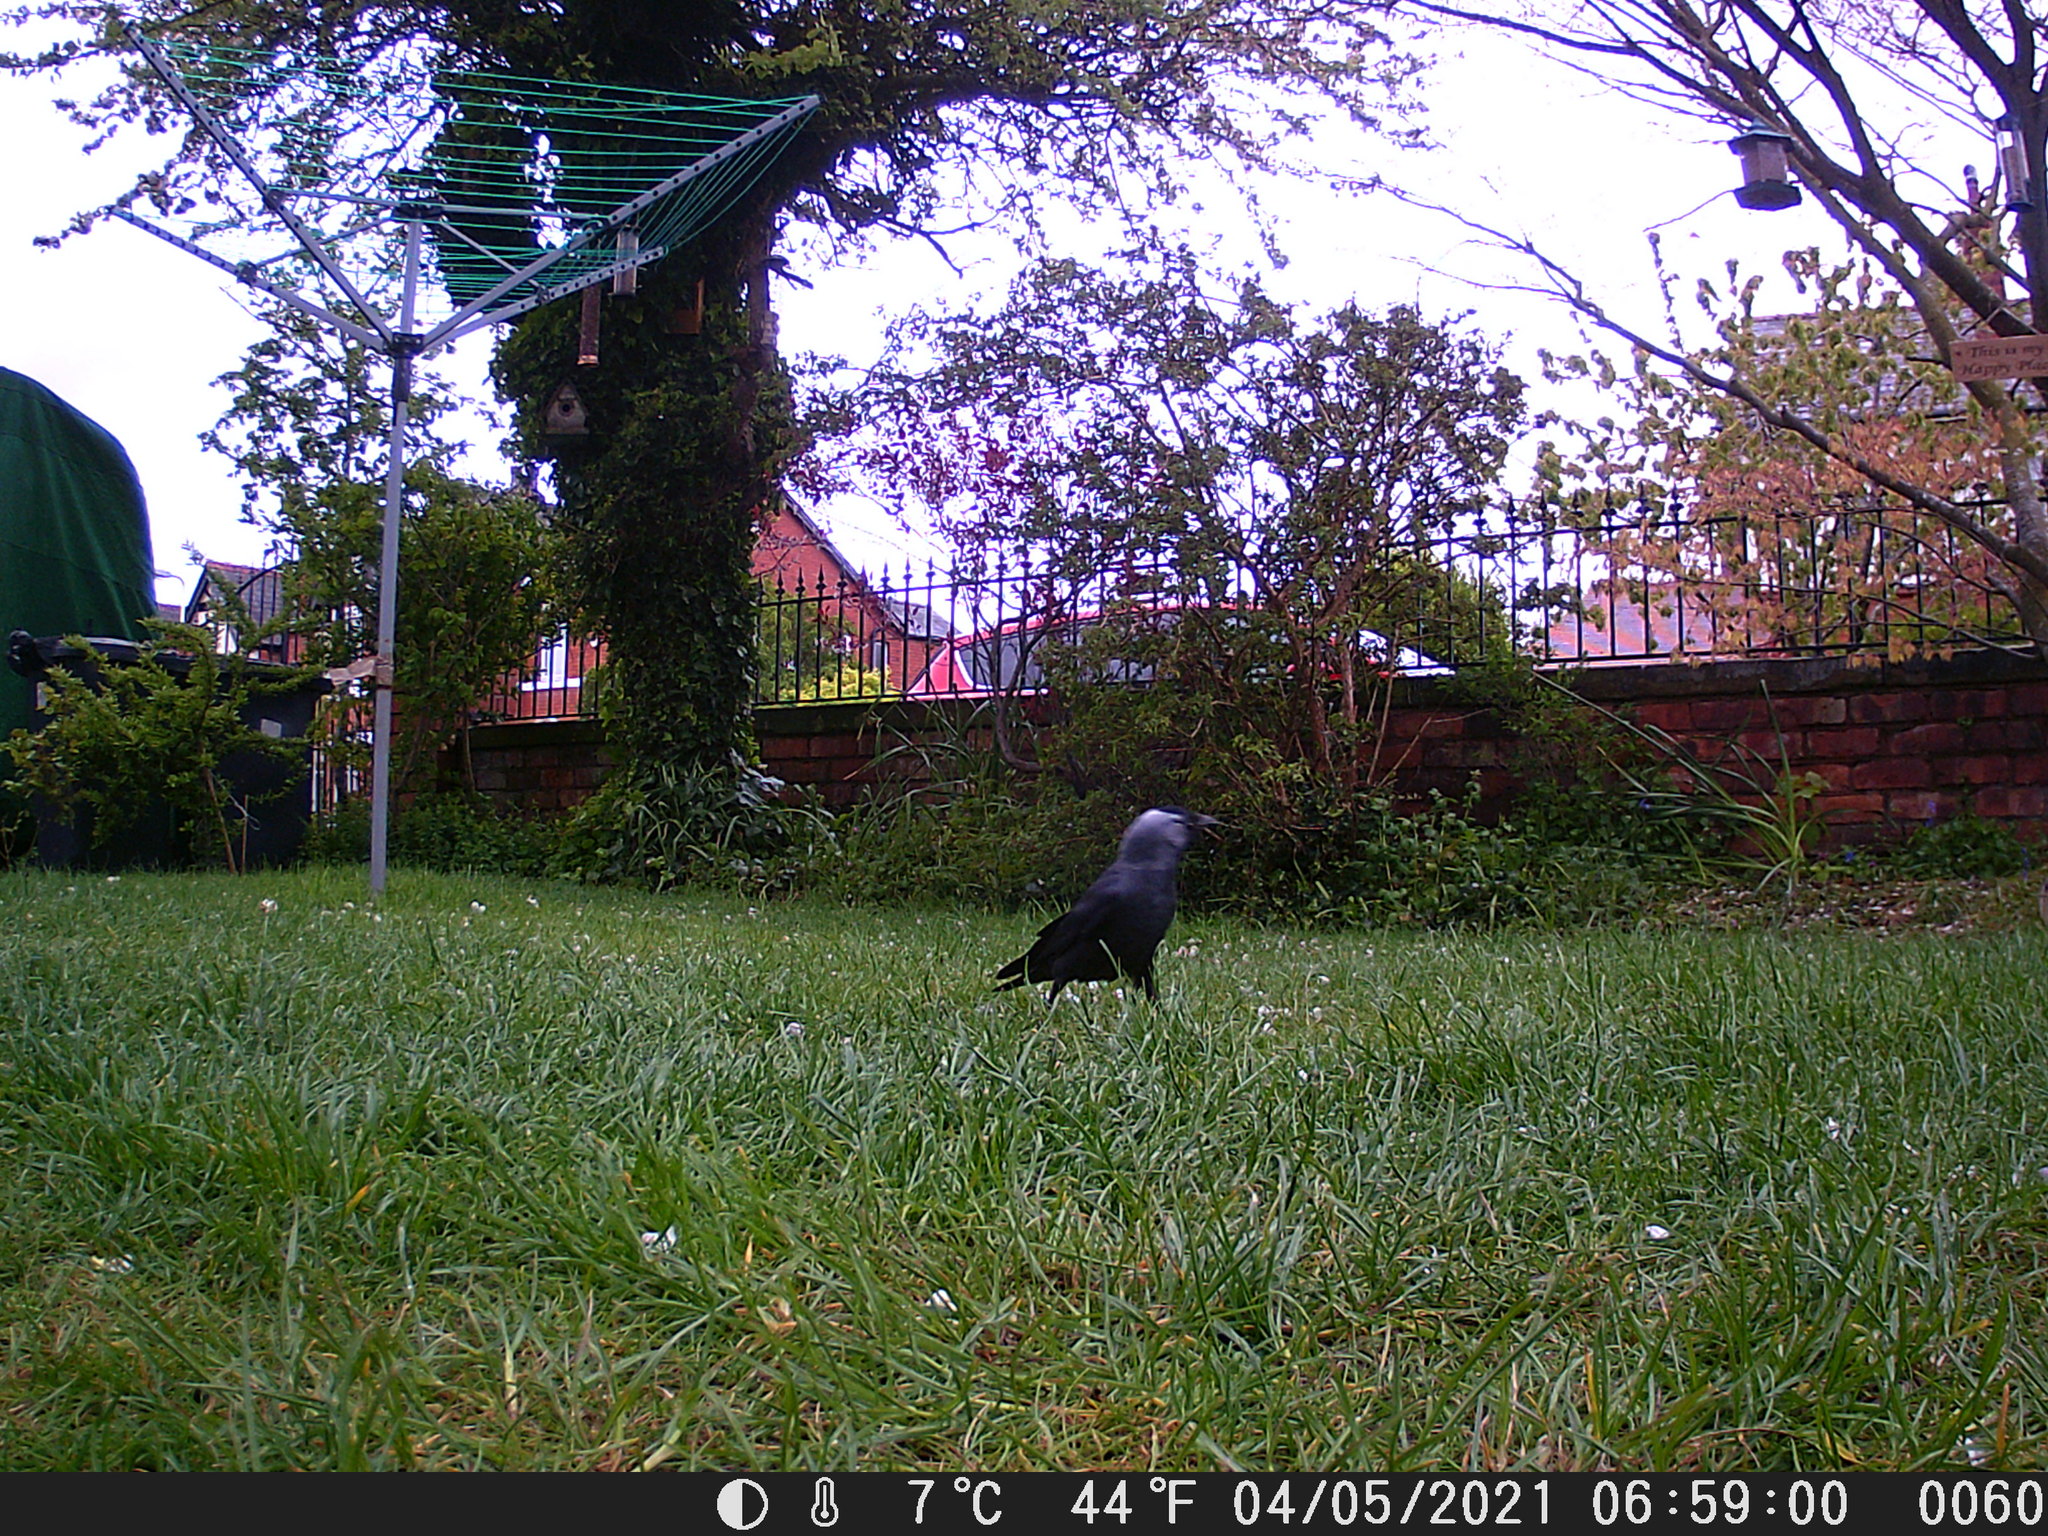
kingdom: Animalia
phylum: Chordata
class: Aves
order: Passeriformes
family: Corvidae
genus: Coloeus
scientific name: Coloeus monedula
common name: Western jackdaw
